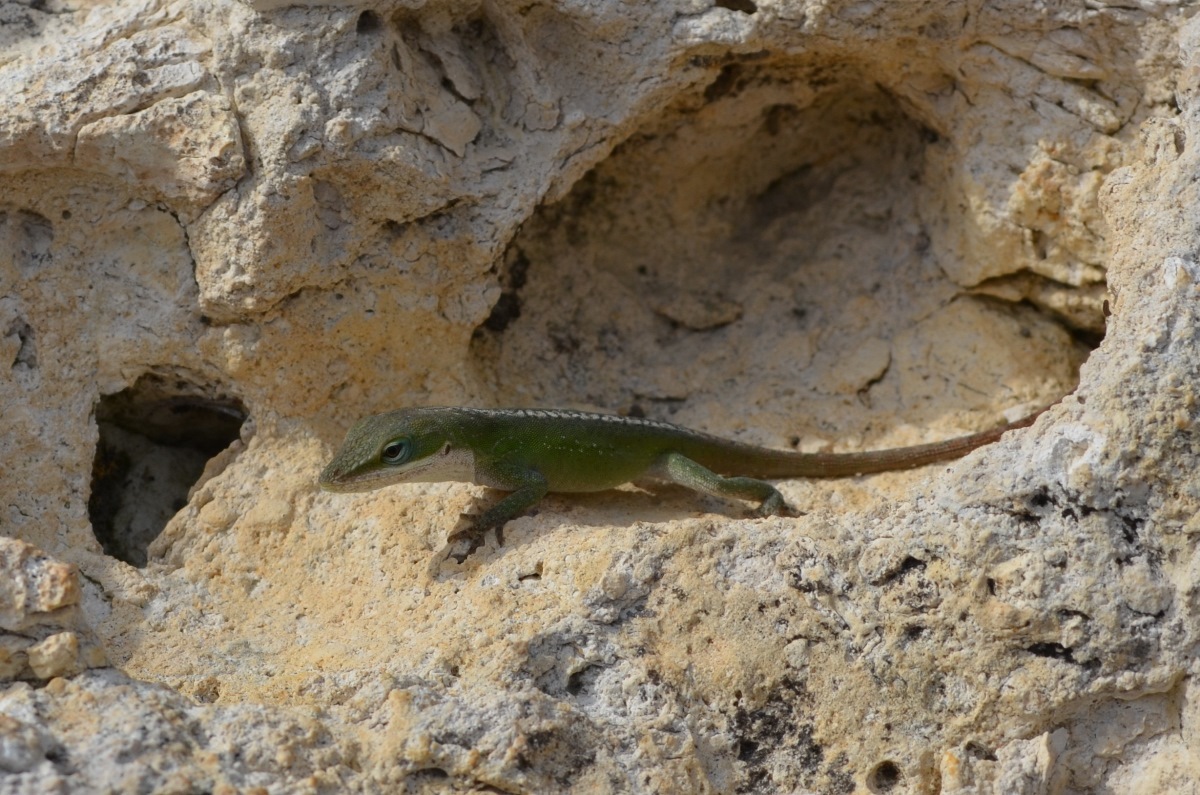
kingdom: Animalia
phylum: Chordata
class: Squamata
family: Dactyloidae
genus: Anolis
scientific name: Anolis carolinensis
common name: Green anole
